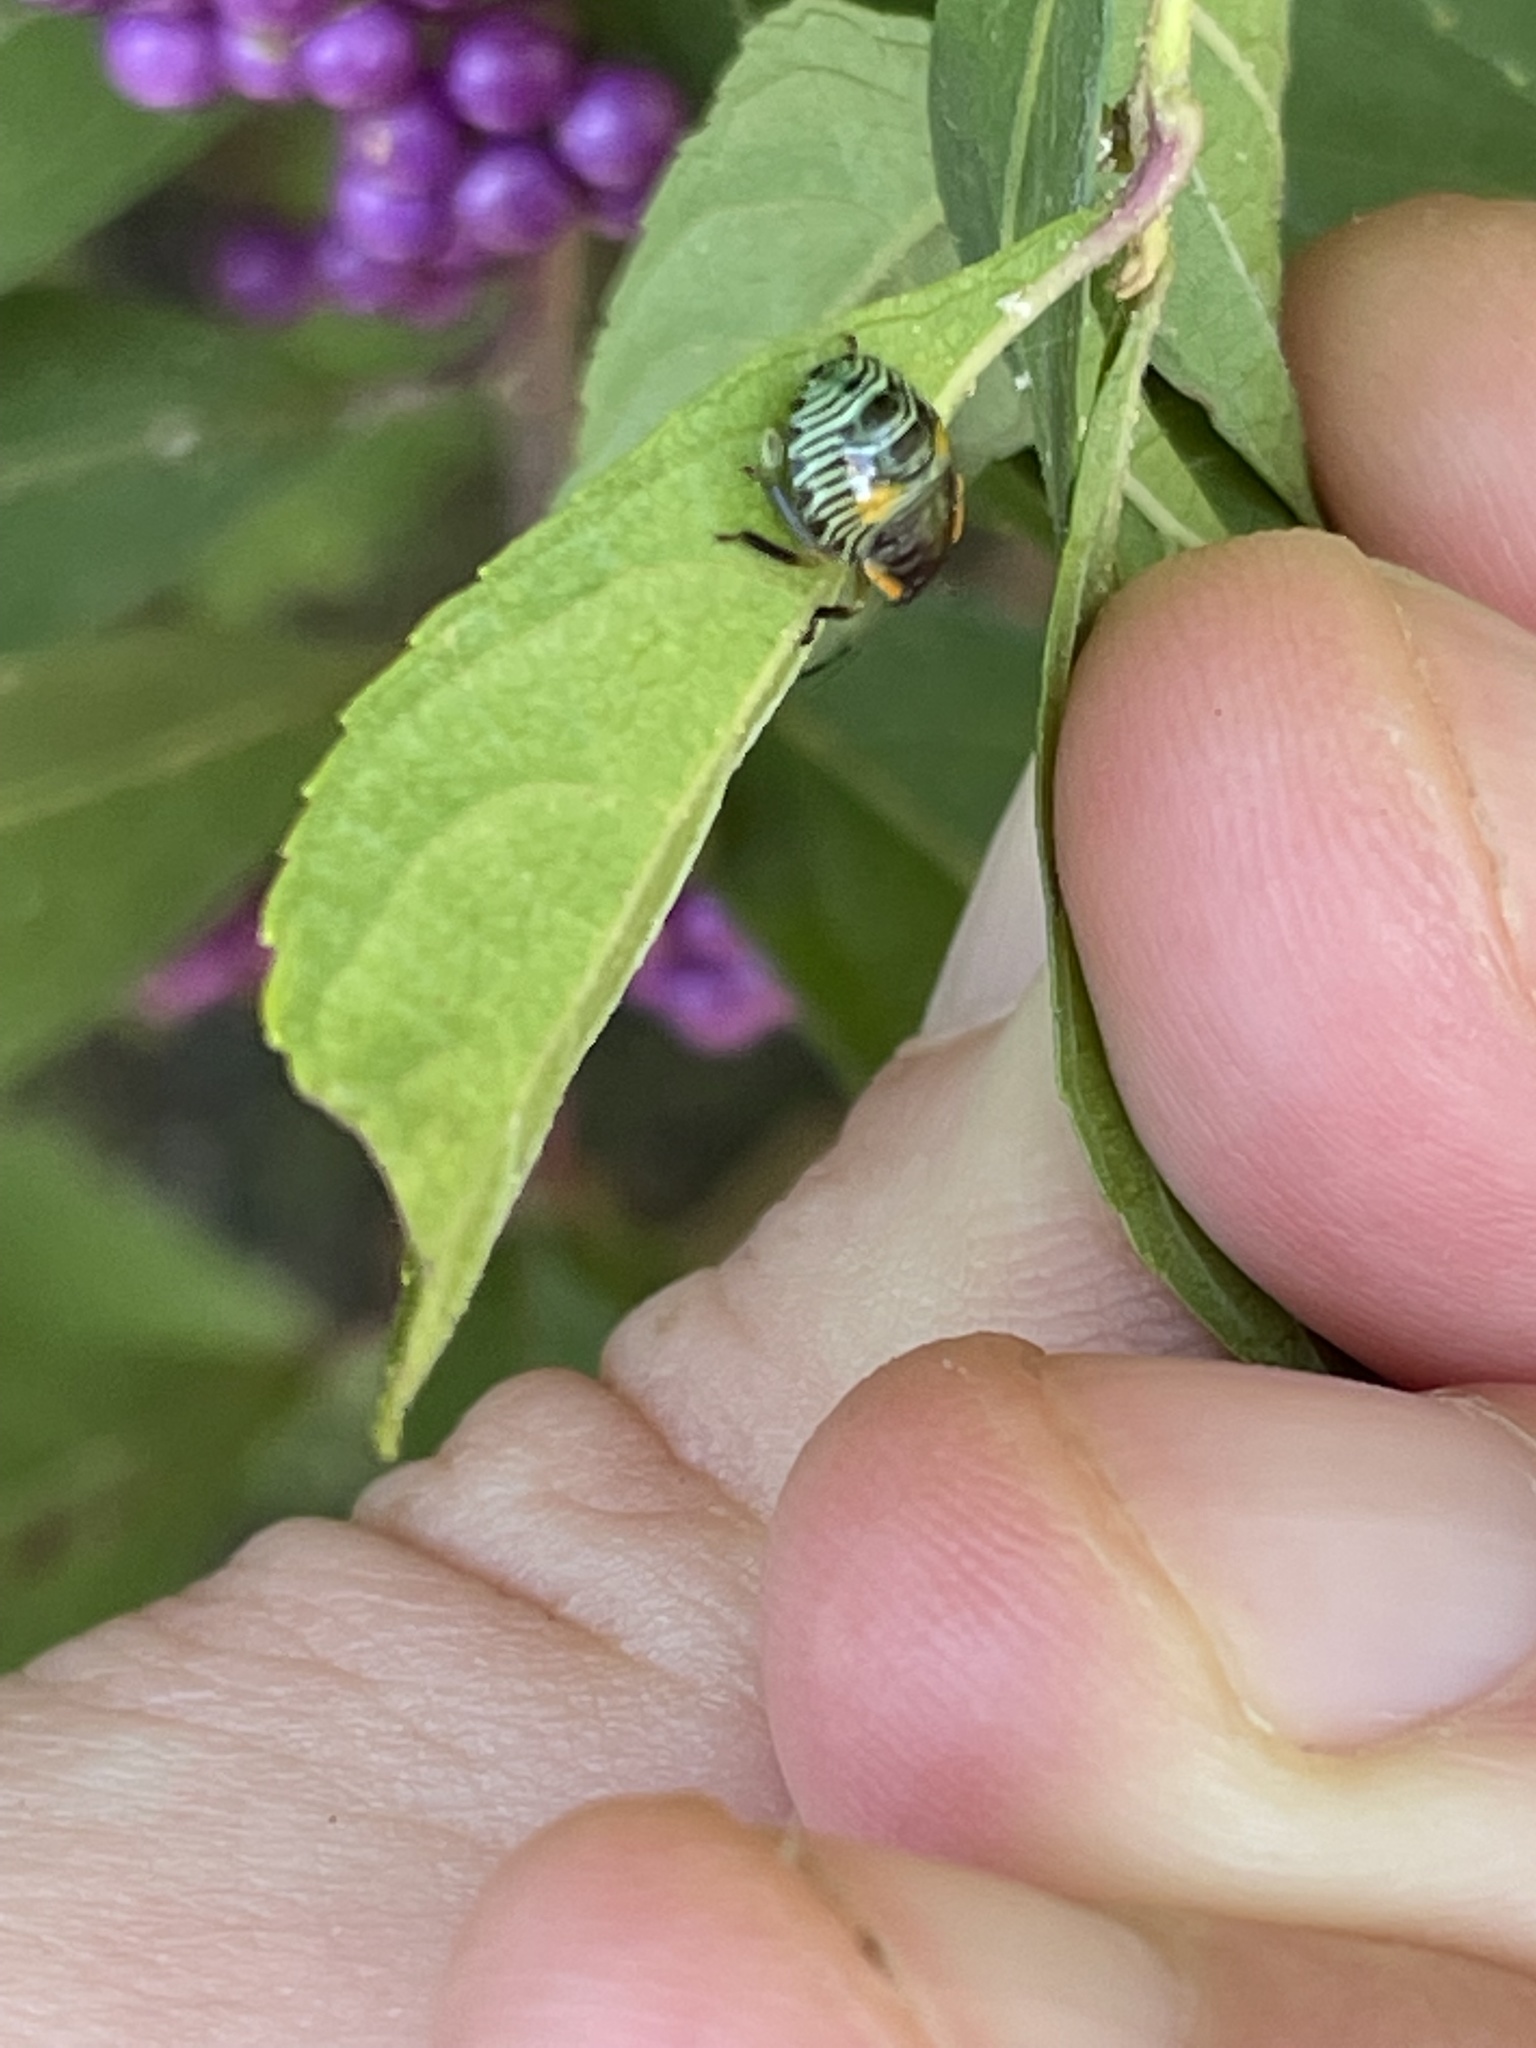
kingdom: Animalia
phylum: Arthropoda
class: Insecta
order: Hemiptera
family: Pentatomidae
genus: Chinavia
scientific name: Chinavia hilaris
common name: Green stink bug
